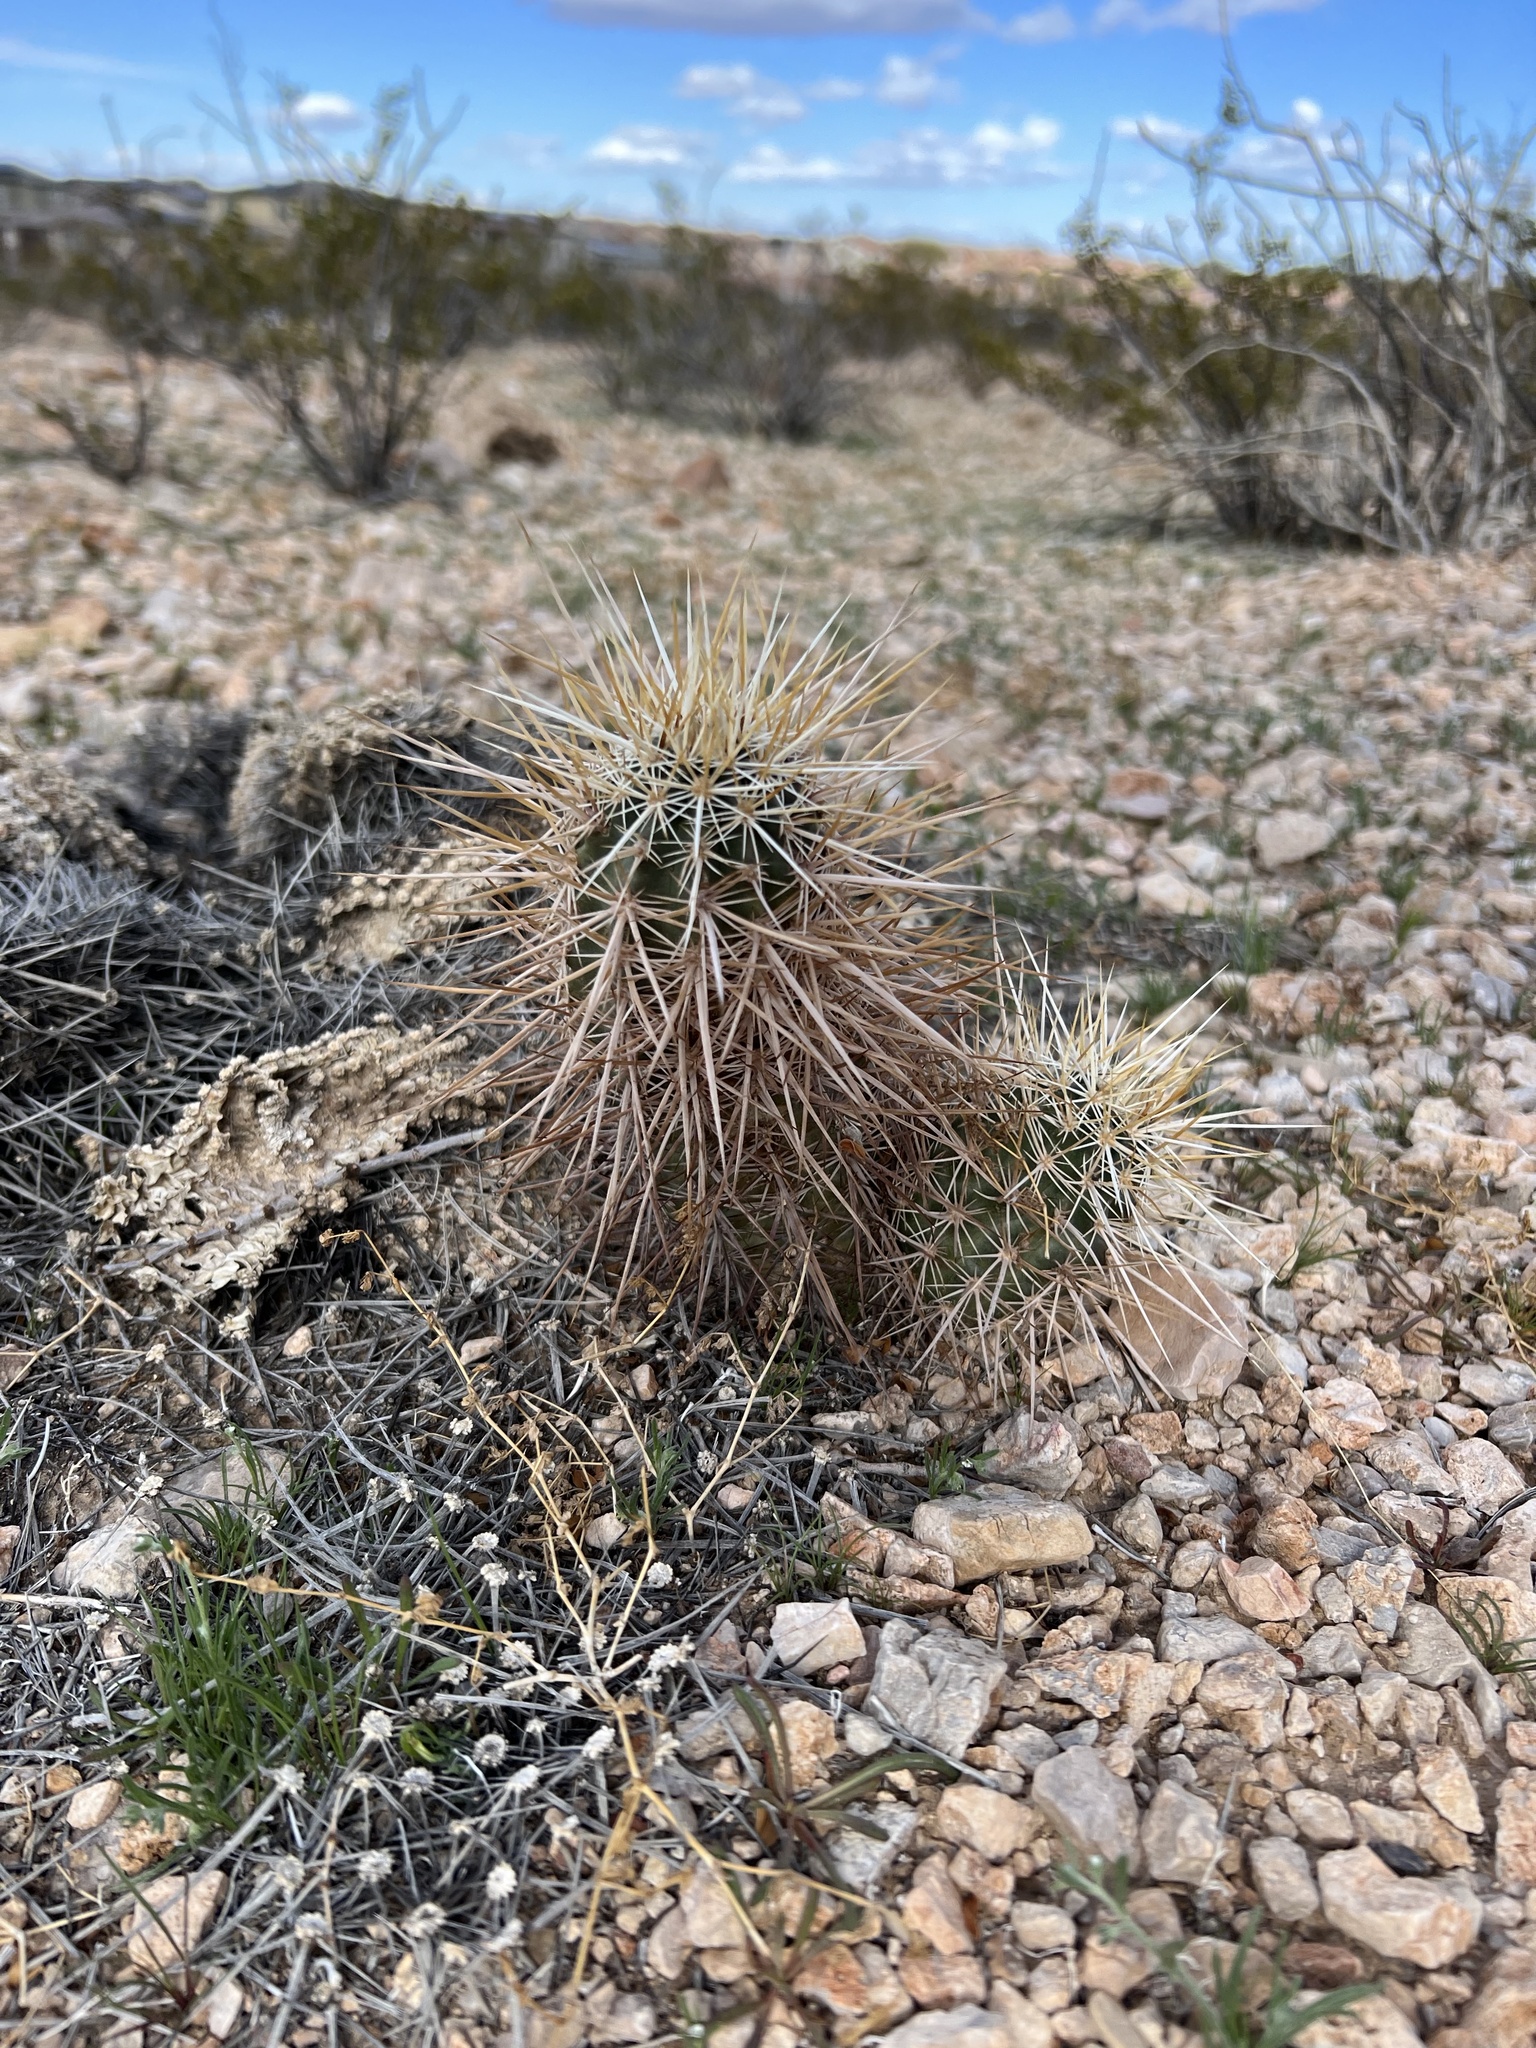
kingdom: Plantae
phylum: Tracheophyta
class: Magnoliopsida
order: Caryophyllales
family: Cactaceae
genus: Echinocereus
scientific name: Echinocereus engelmannii
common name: Engelmann's hedgehog cactus
